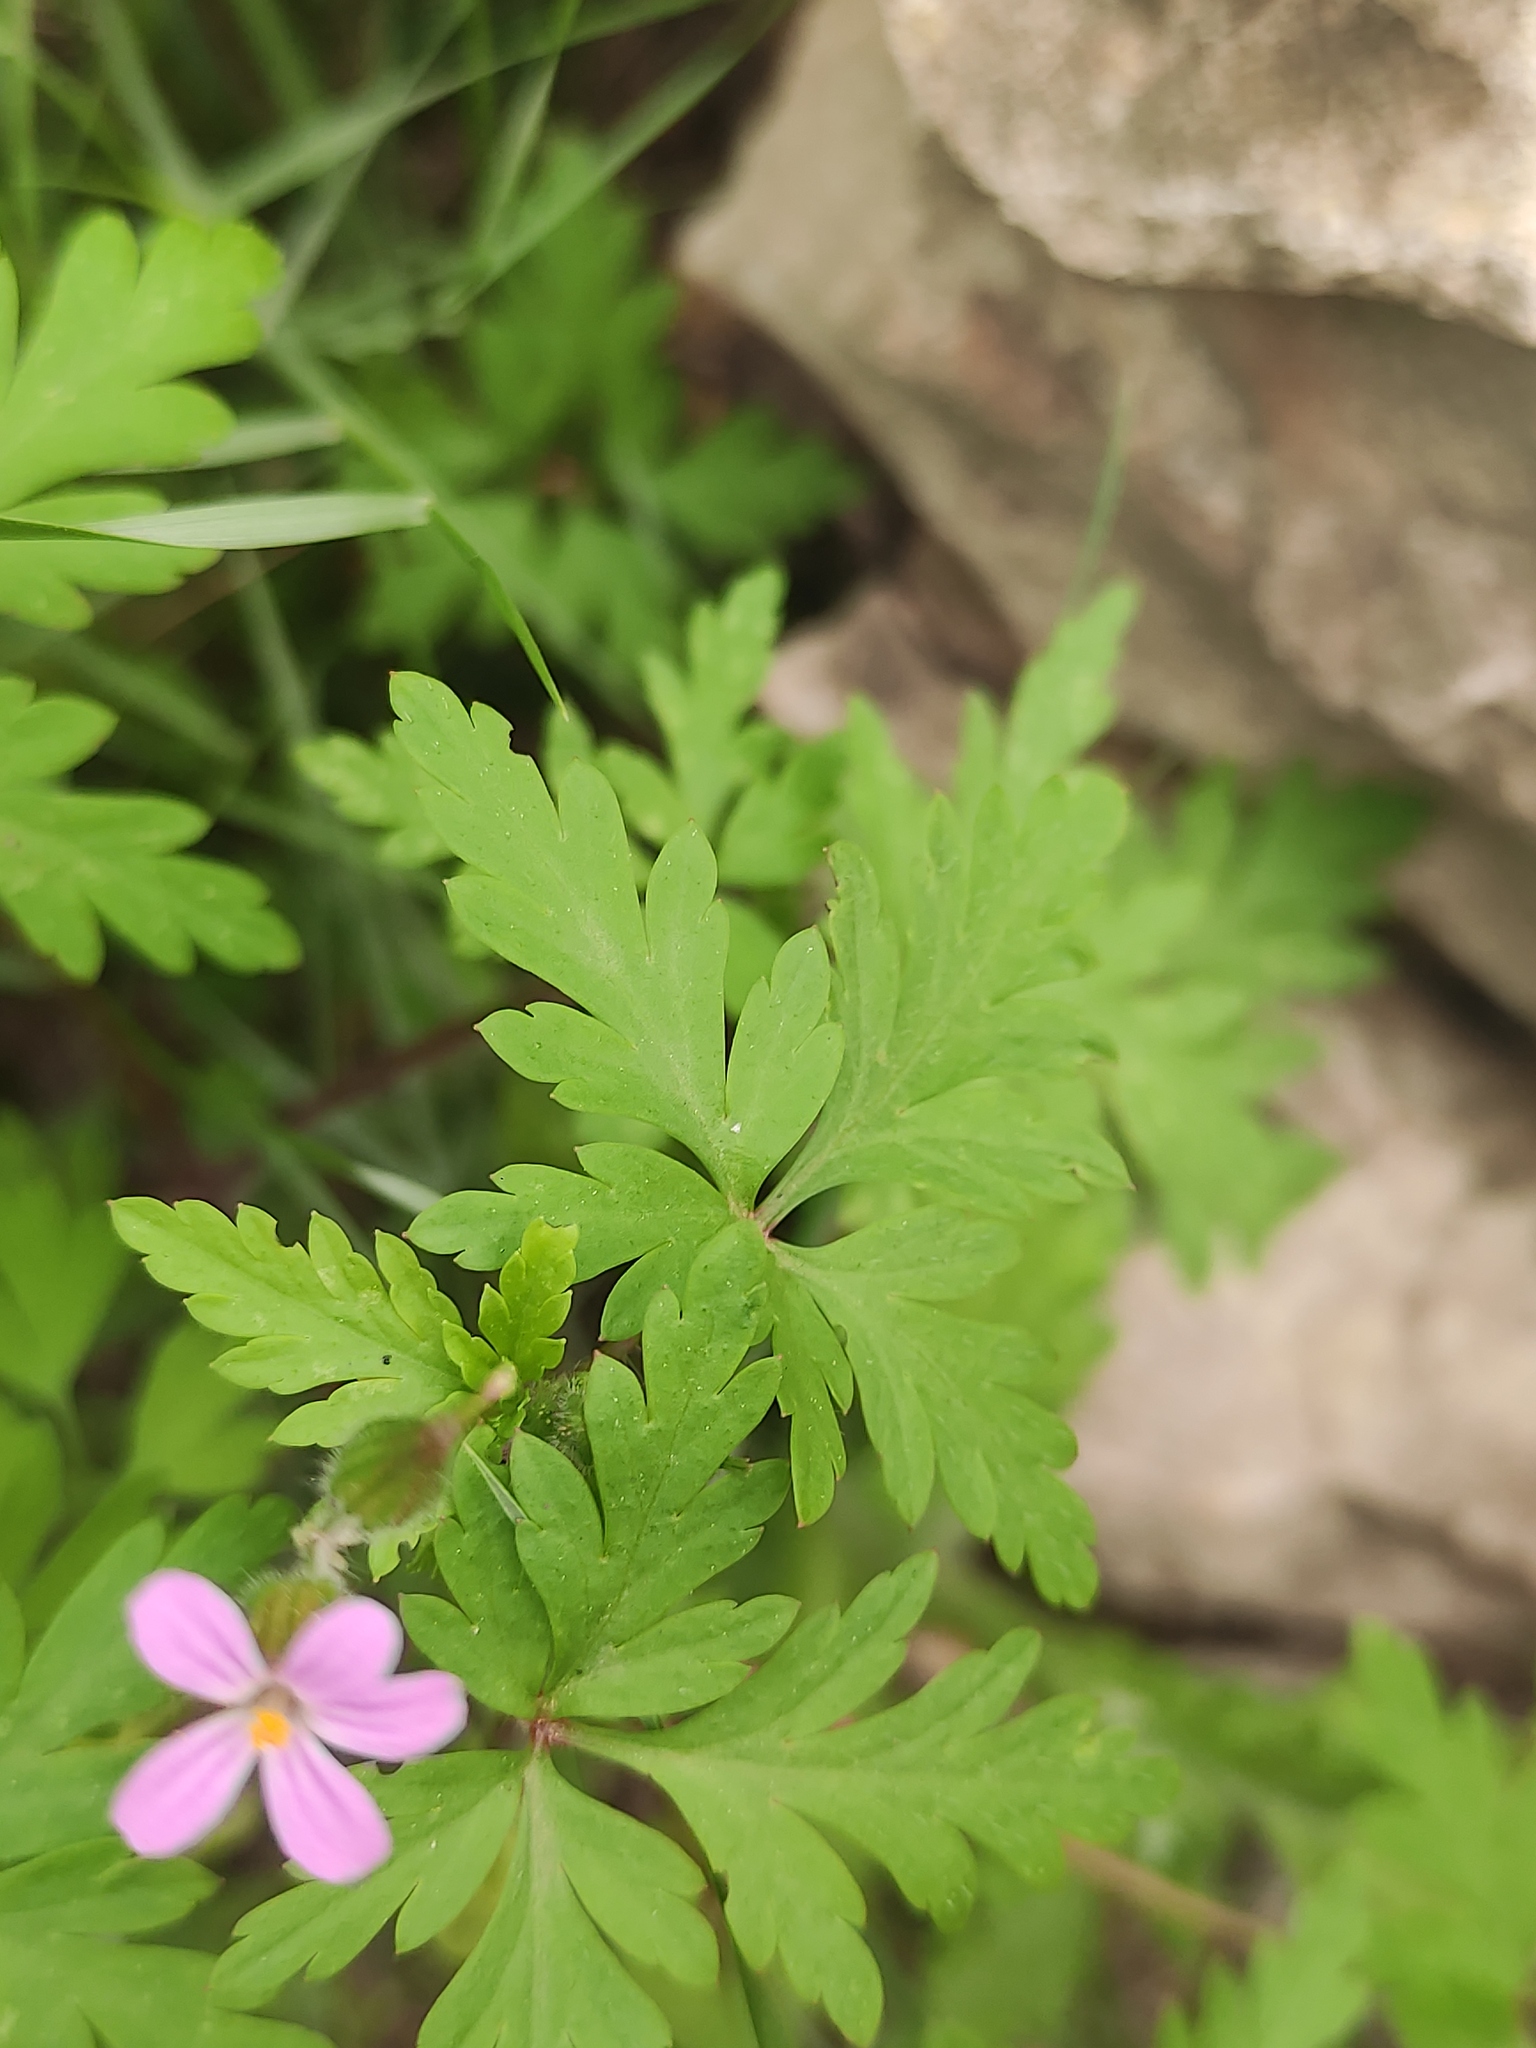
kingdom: Plantae
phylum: Tracheophyta
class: Magnoliopsida
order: Geraniales
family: Geraniaceae
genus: Geranium
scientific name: Geranium purpureum
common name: Little-robin
